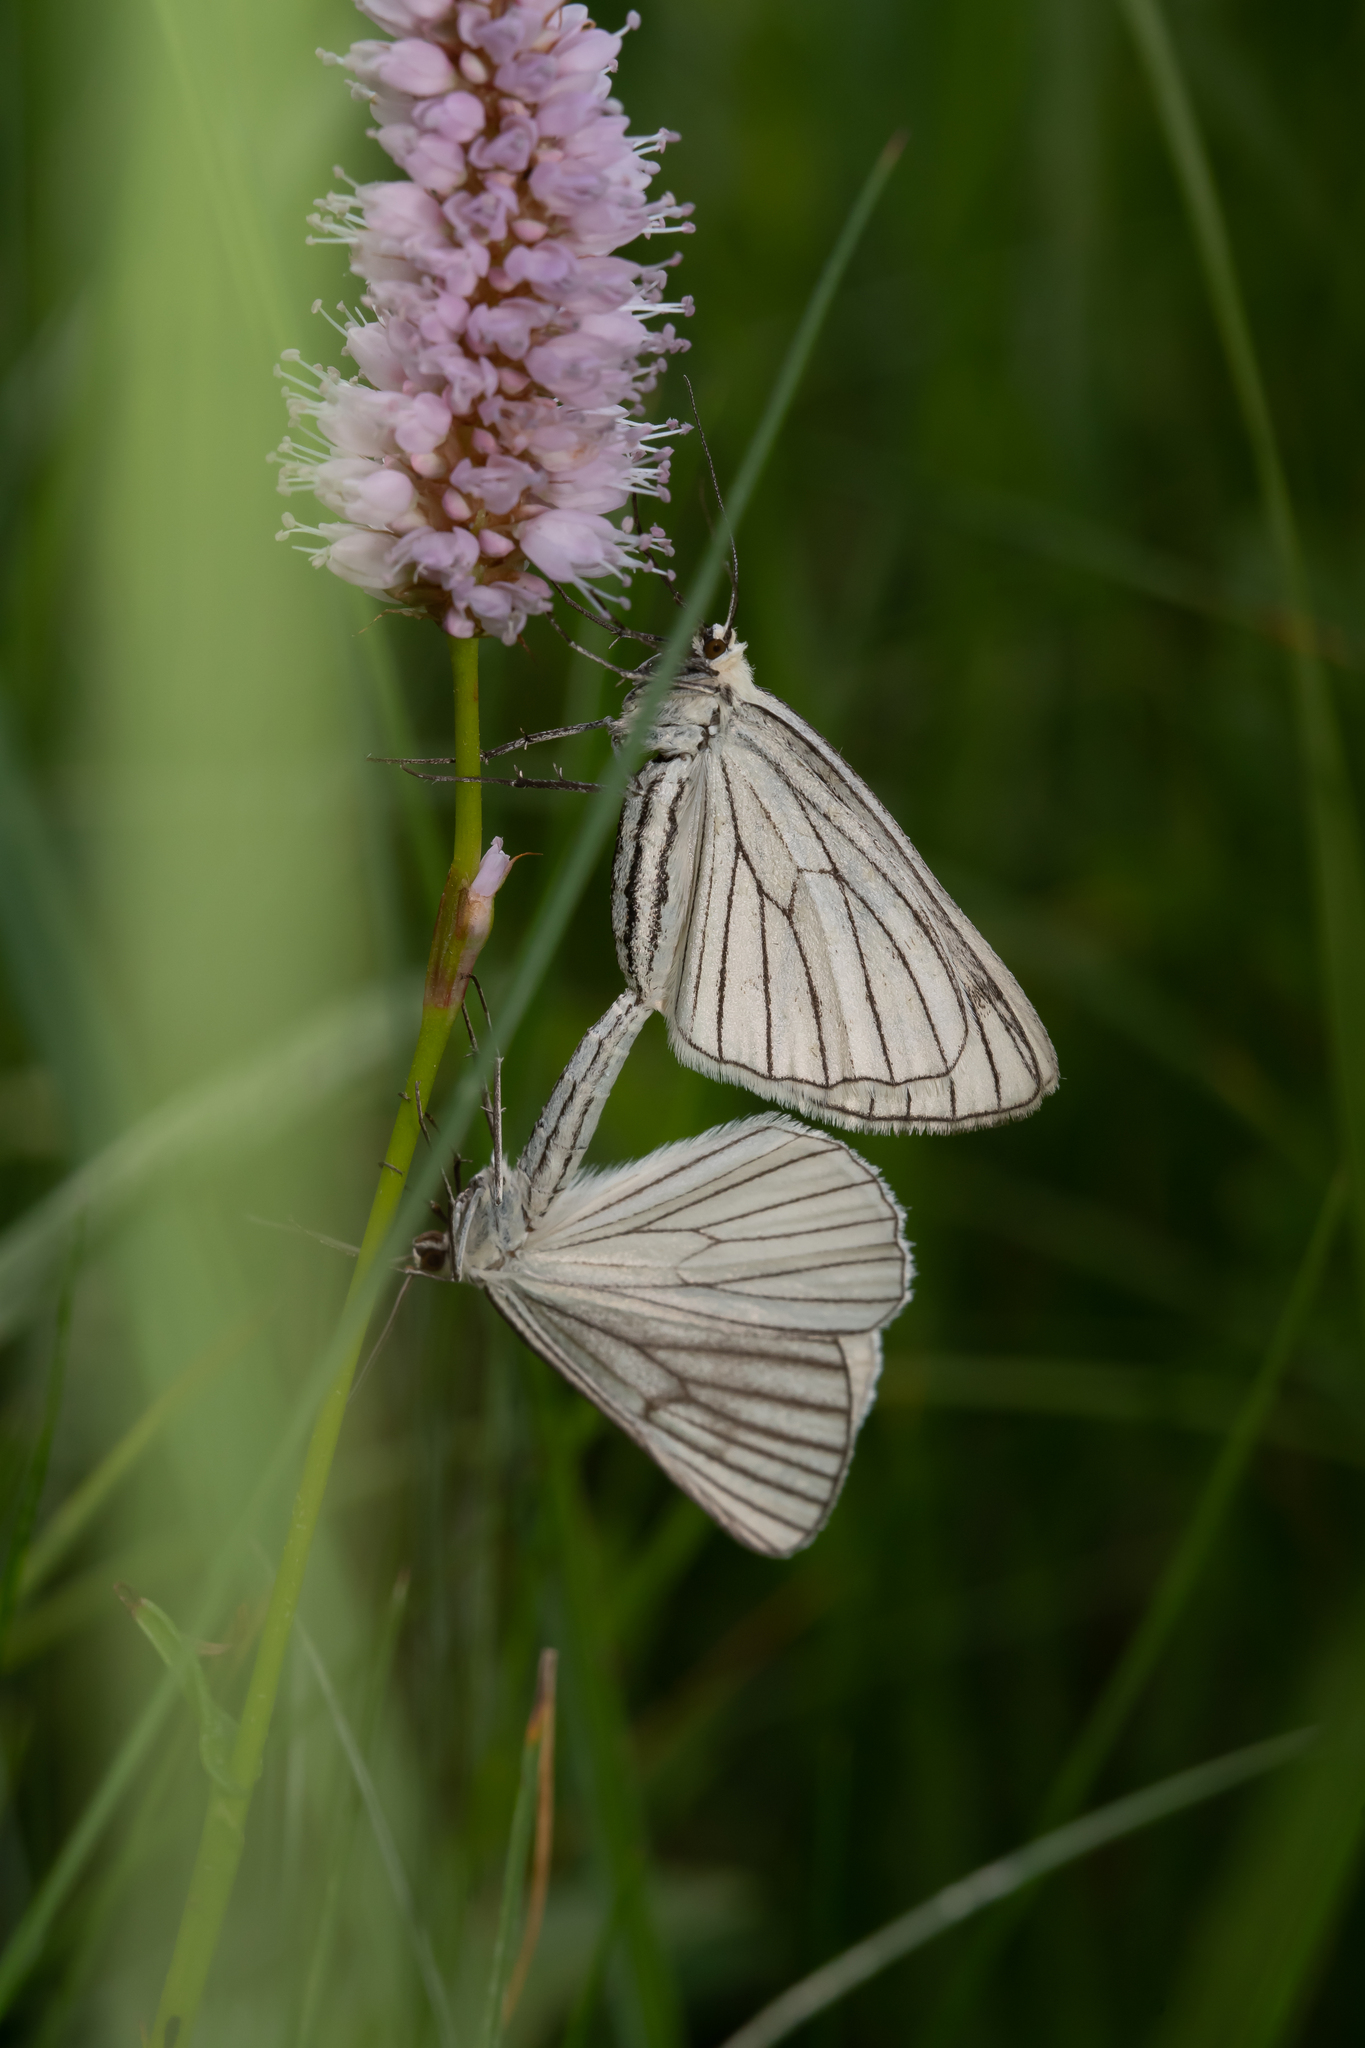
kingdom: Animalia
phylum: Arthropoda
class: Insecta
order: Lepidoptera
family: Geometridae
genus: Siona
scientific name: Siona lineata
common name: Black-veined moth
